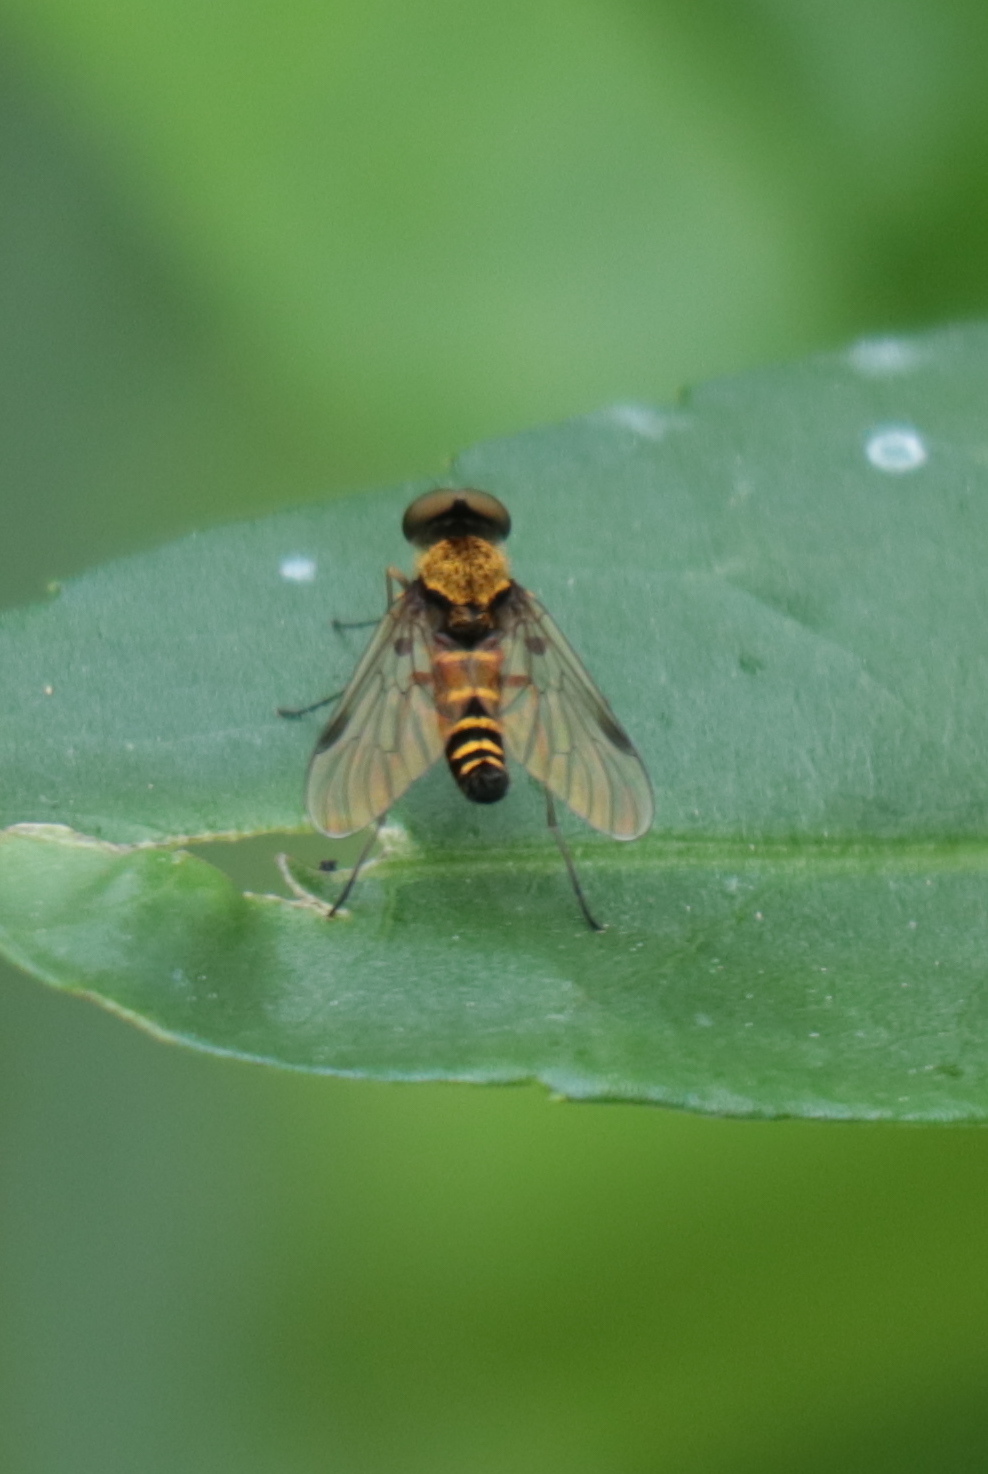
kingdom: Animalia
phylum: Arthropoda
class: Insecta
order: Diptera
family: Rhagionidae
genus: Chrysopilus
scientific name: Chrysopilus fasciatus
